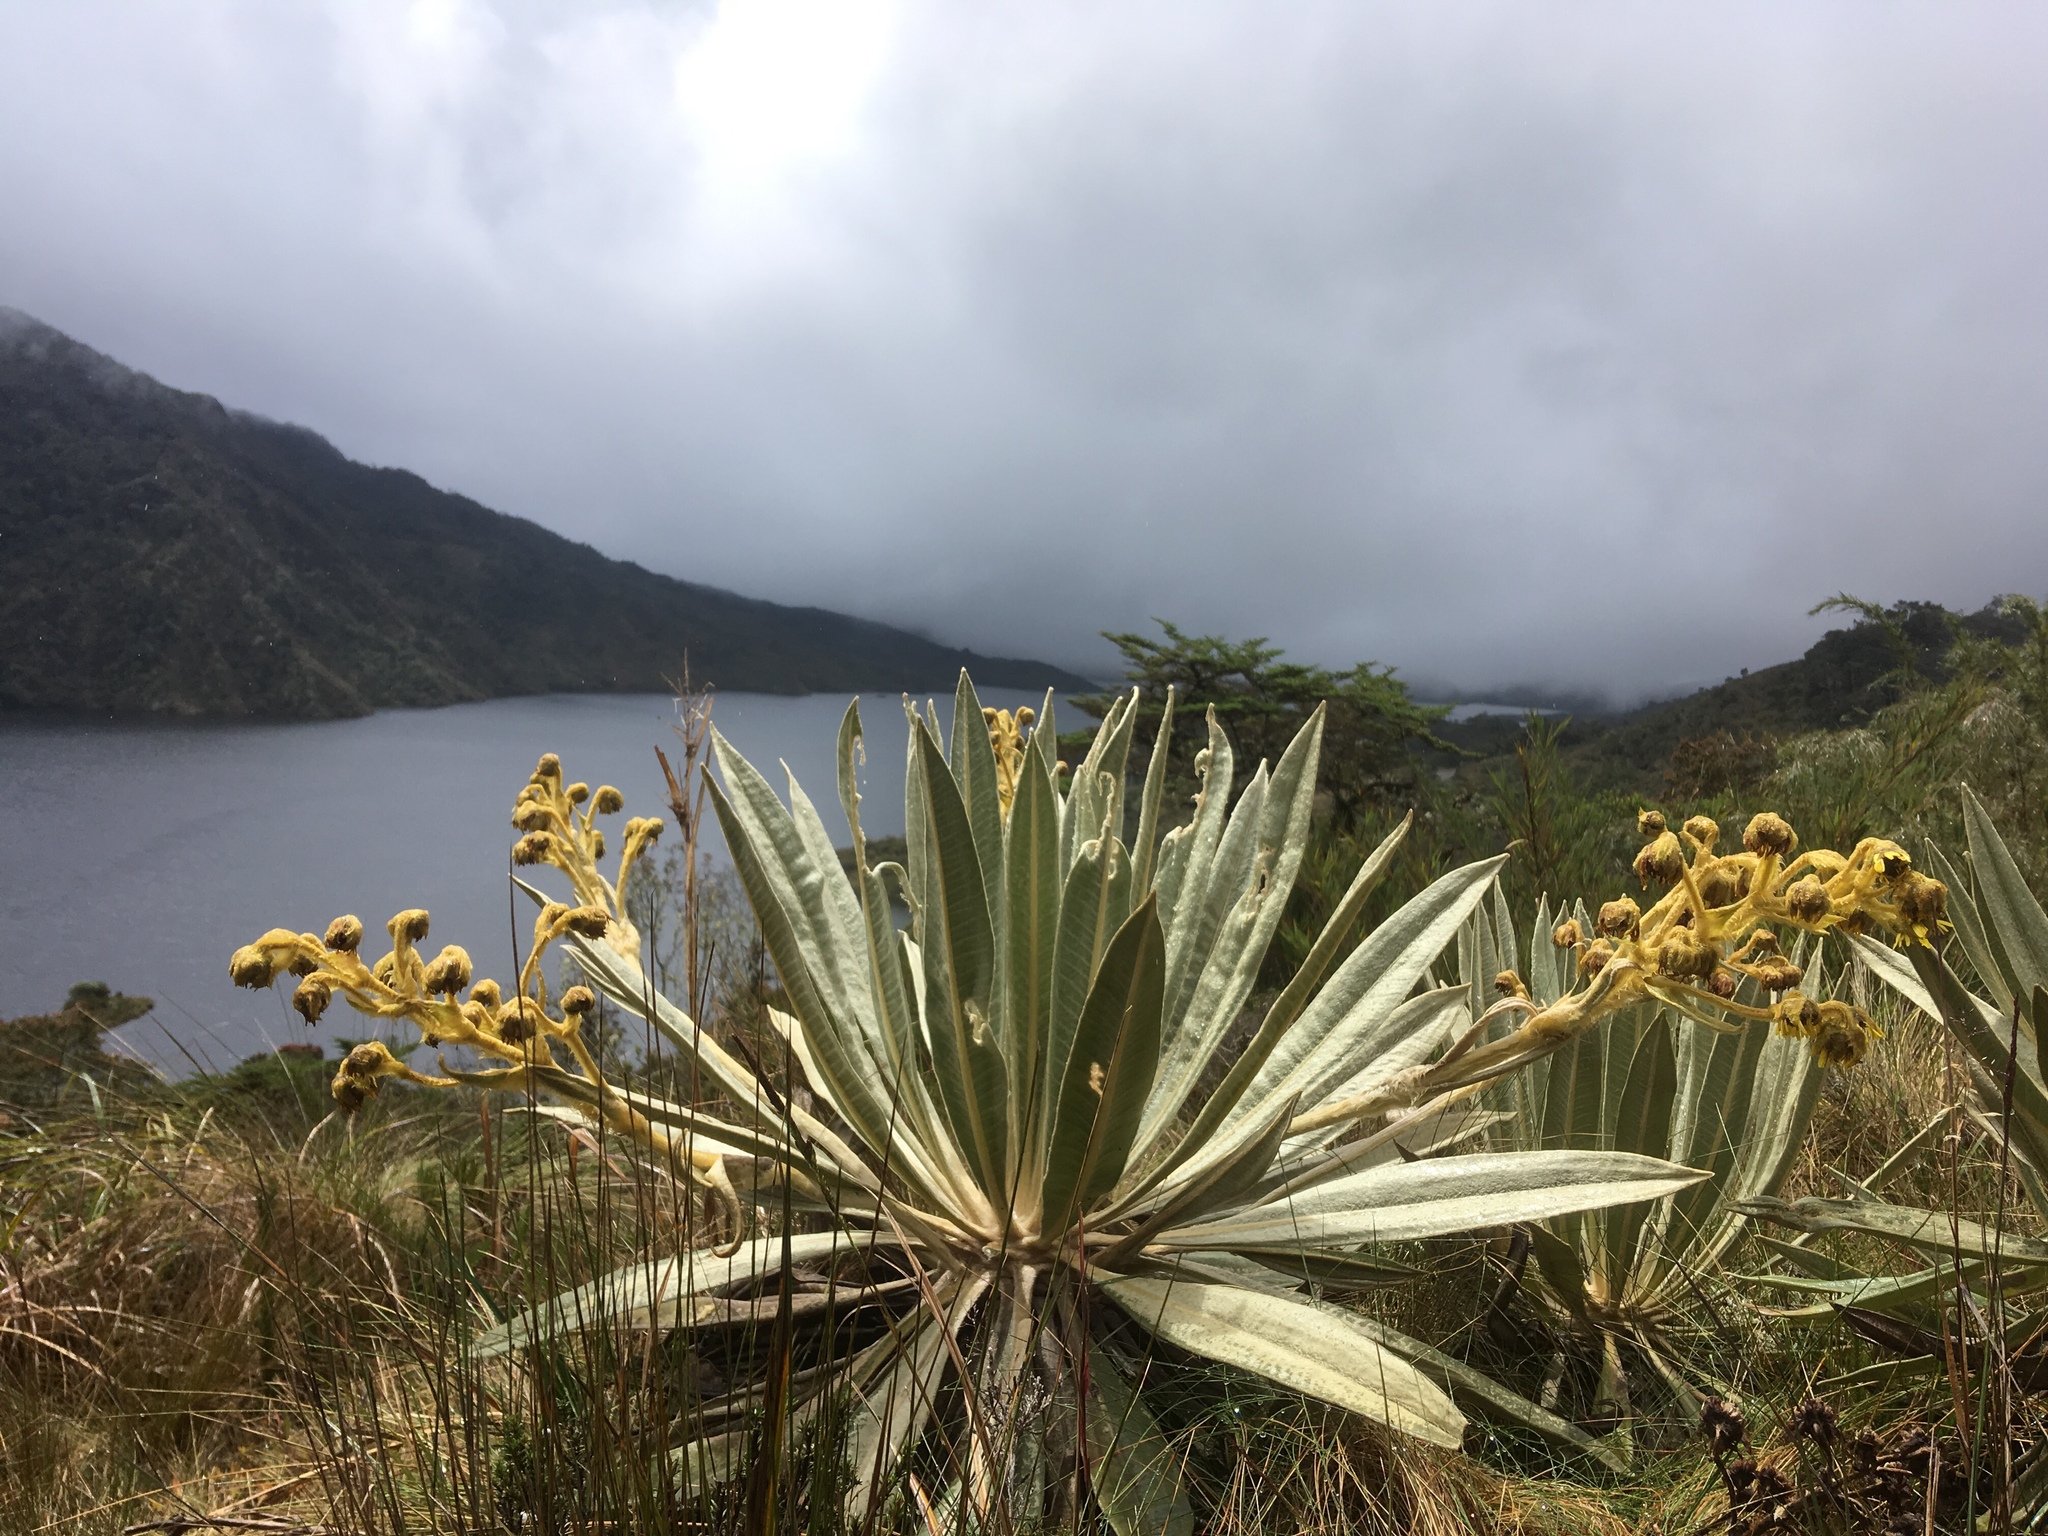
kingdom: Plantae
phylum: Tracheophyta
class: Magnoliopsida
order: Asterales
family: Asteraceae
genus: Espeletia
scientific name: Espeletia grandiflora
